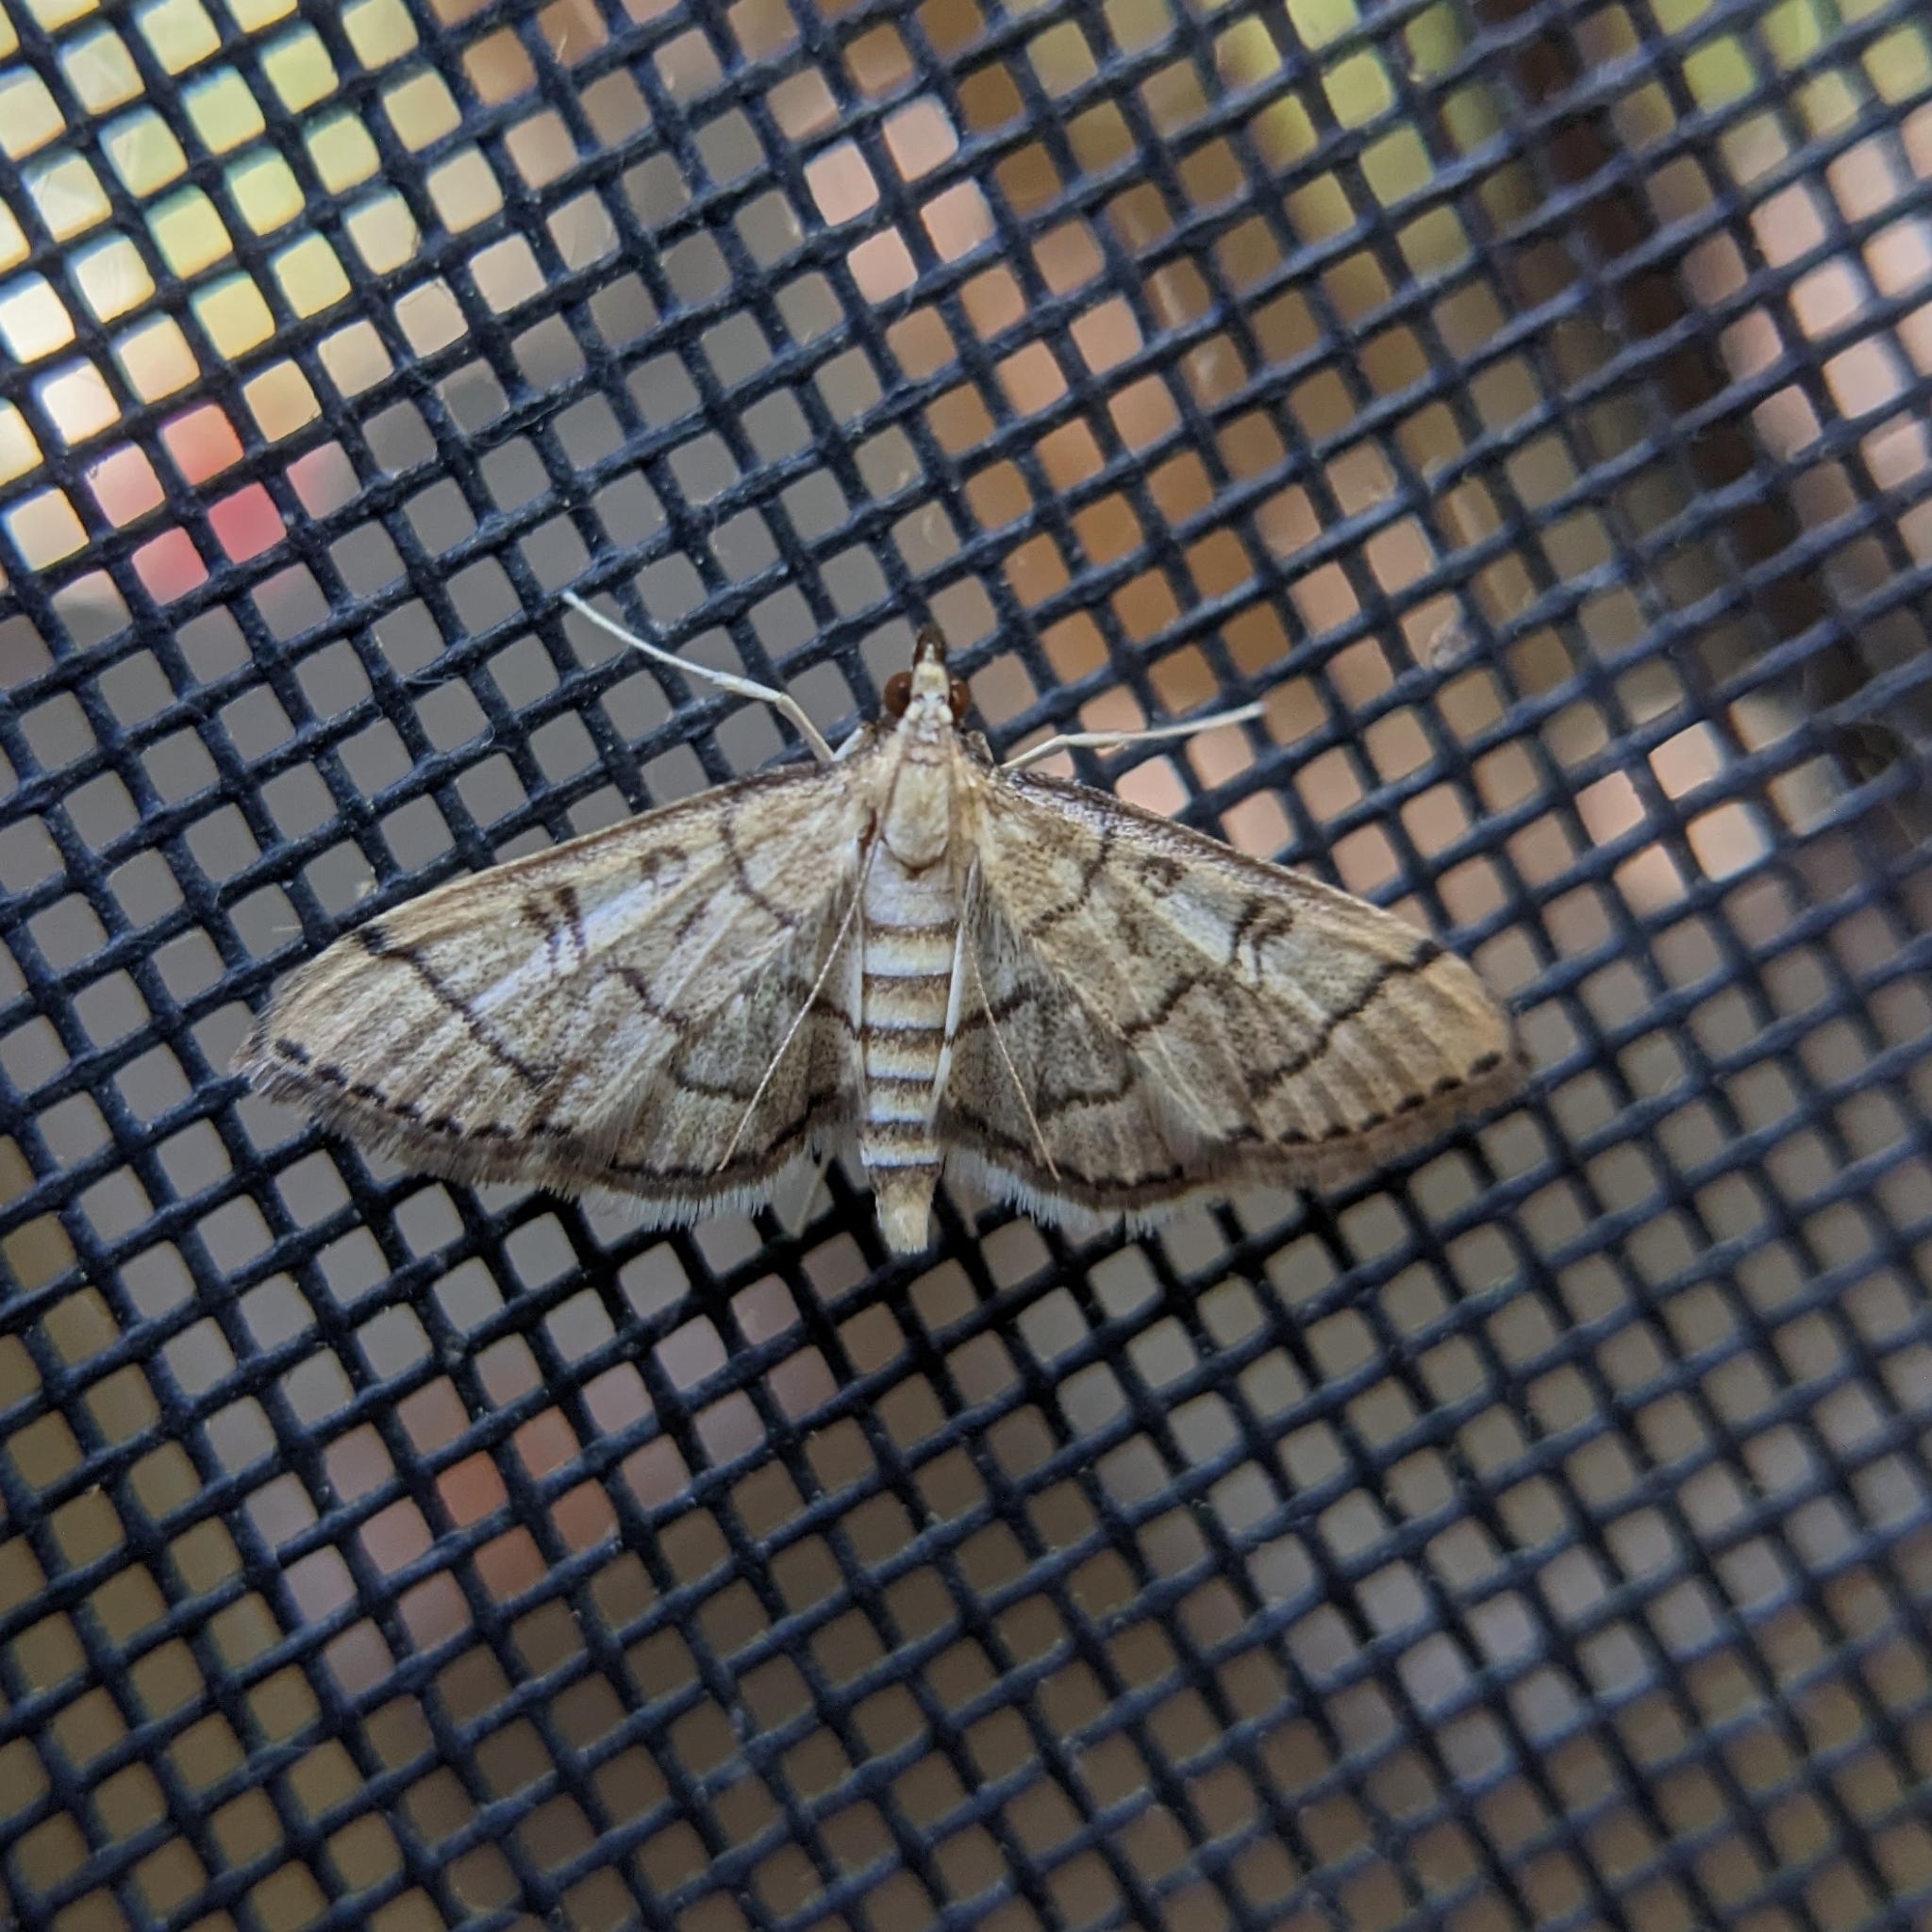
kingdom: Animalia
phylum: Arthropoda
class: Insecta
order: Lepidoptera
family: Crambidae
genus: Lamprosema
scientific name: Lamprosema Blepharomastix ranalis
